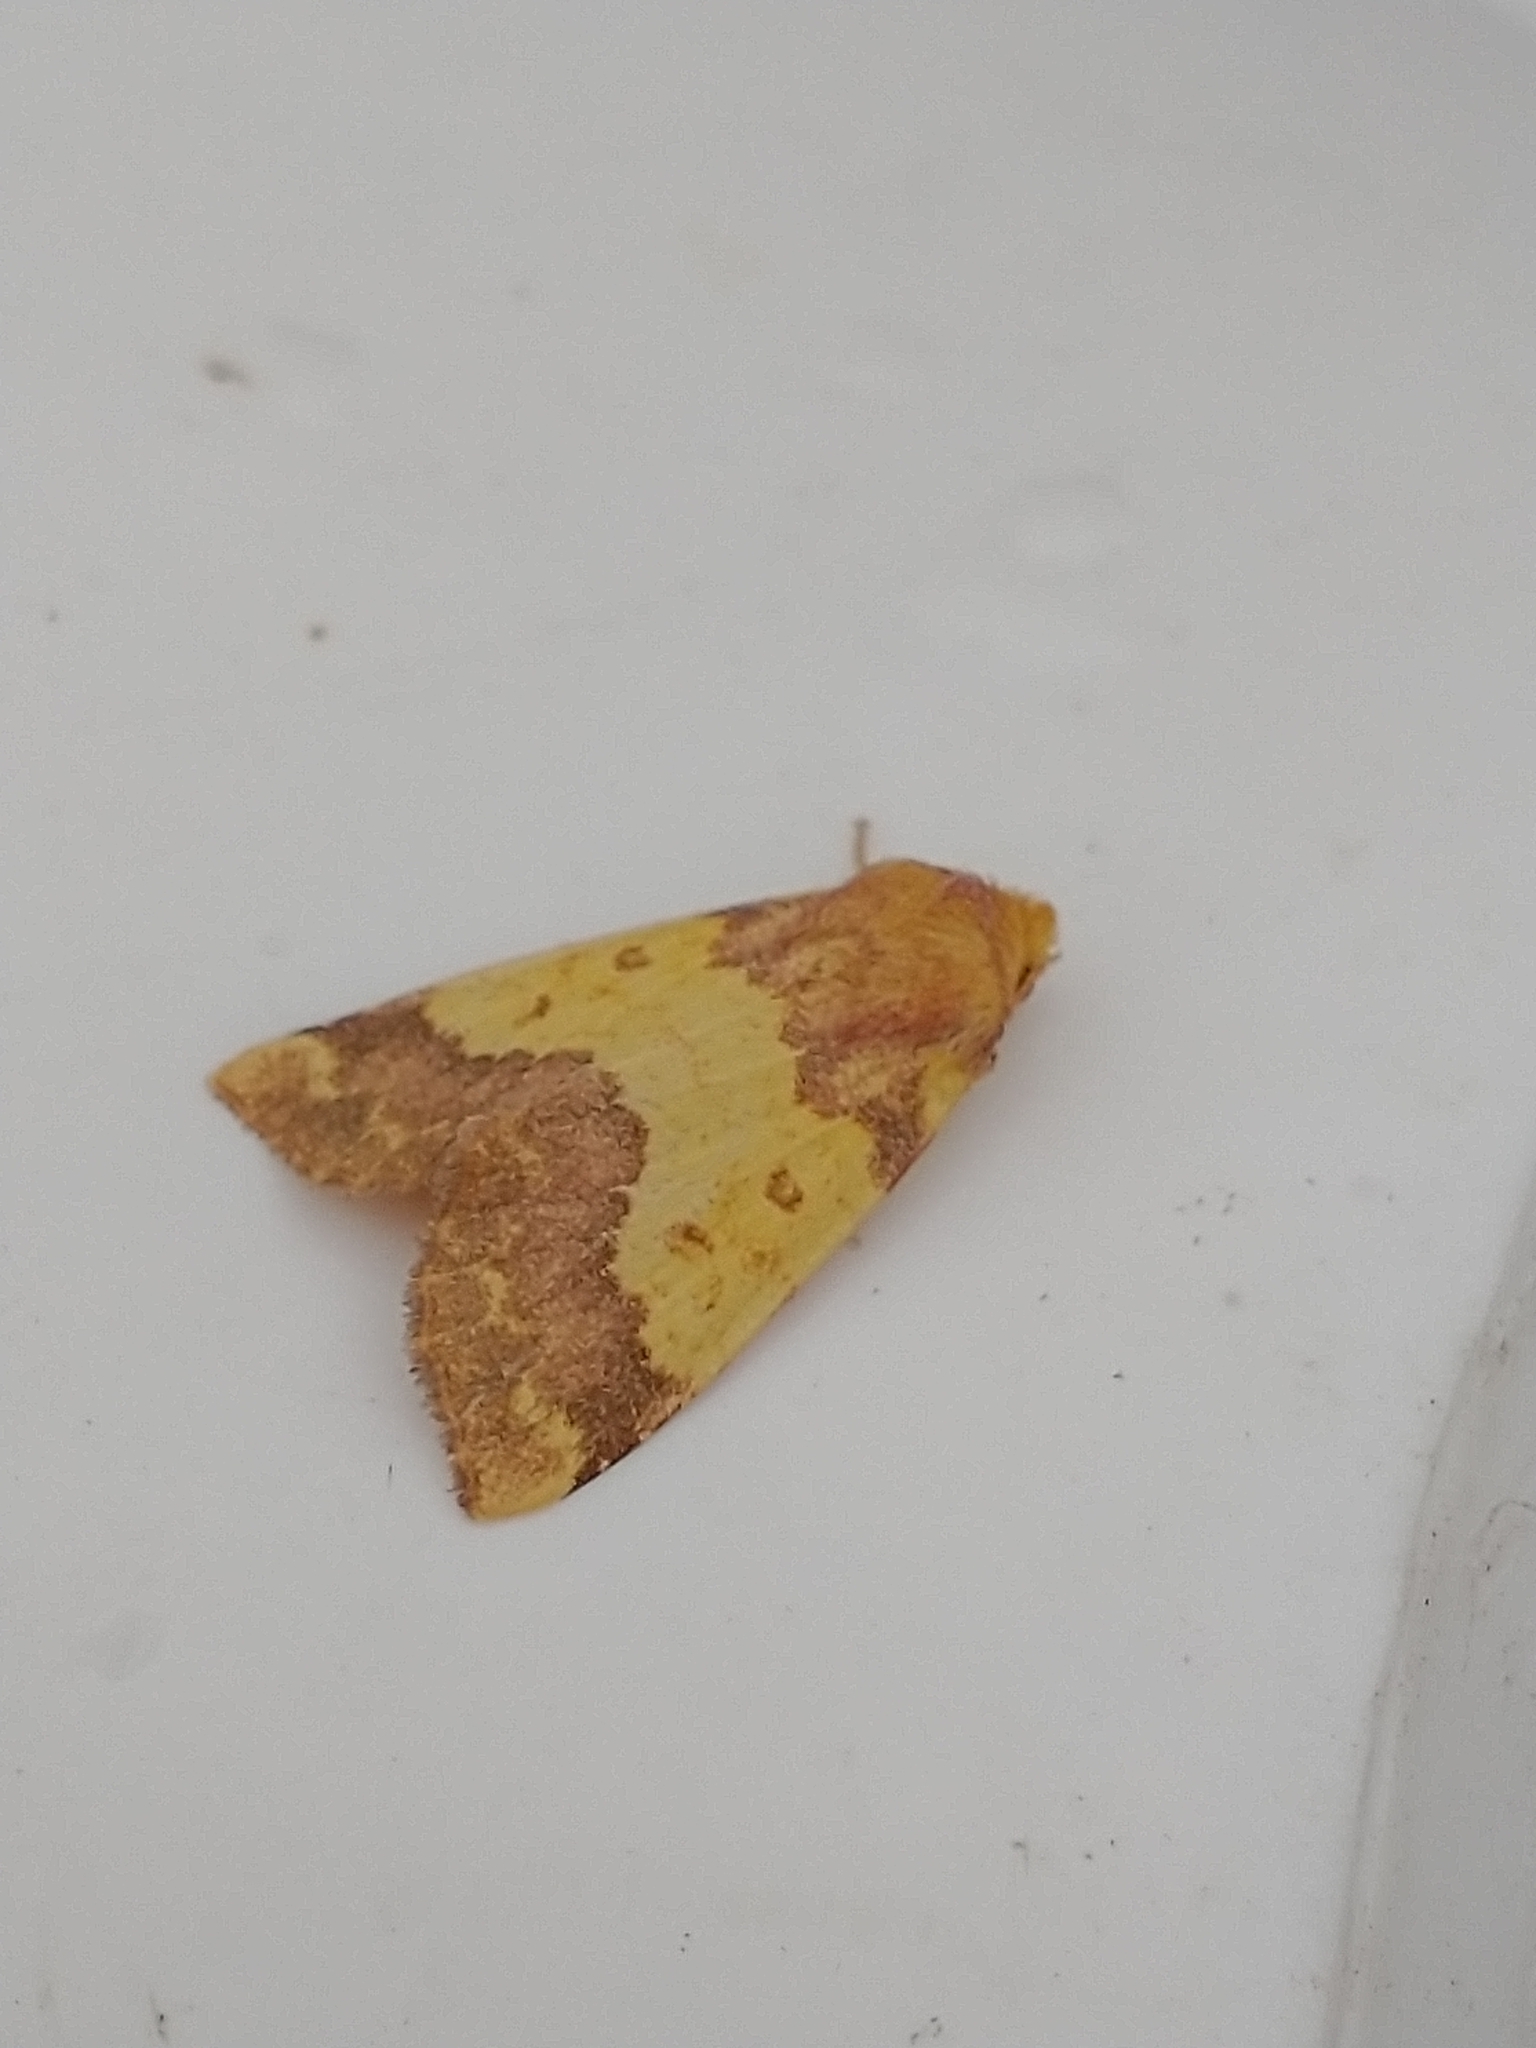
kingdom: Animalia
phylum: Arthropoda
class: Insecta
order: Lepidoptera
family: Noctuidae
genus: Tiliacea
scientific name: Tiliacea aurago
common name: Barred sallow
